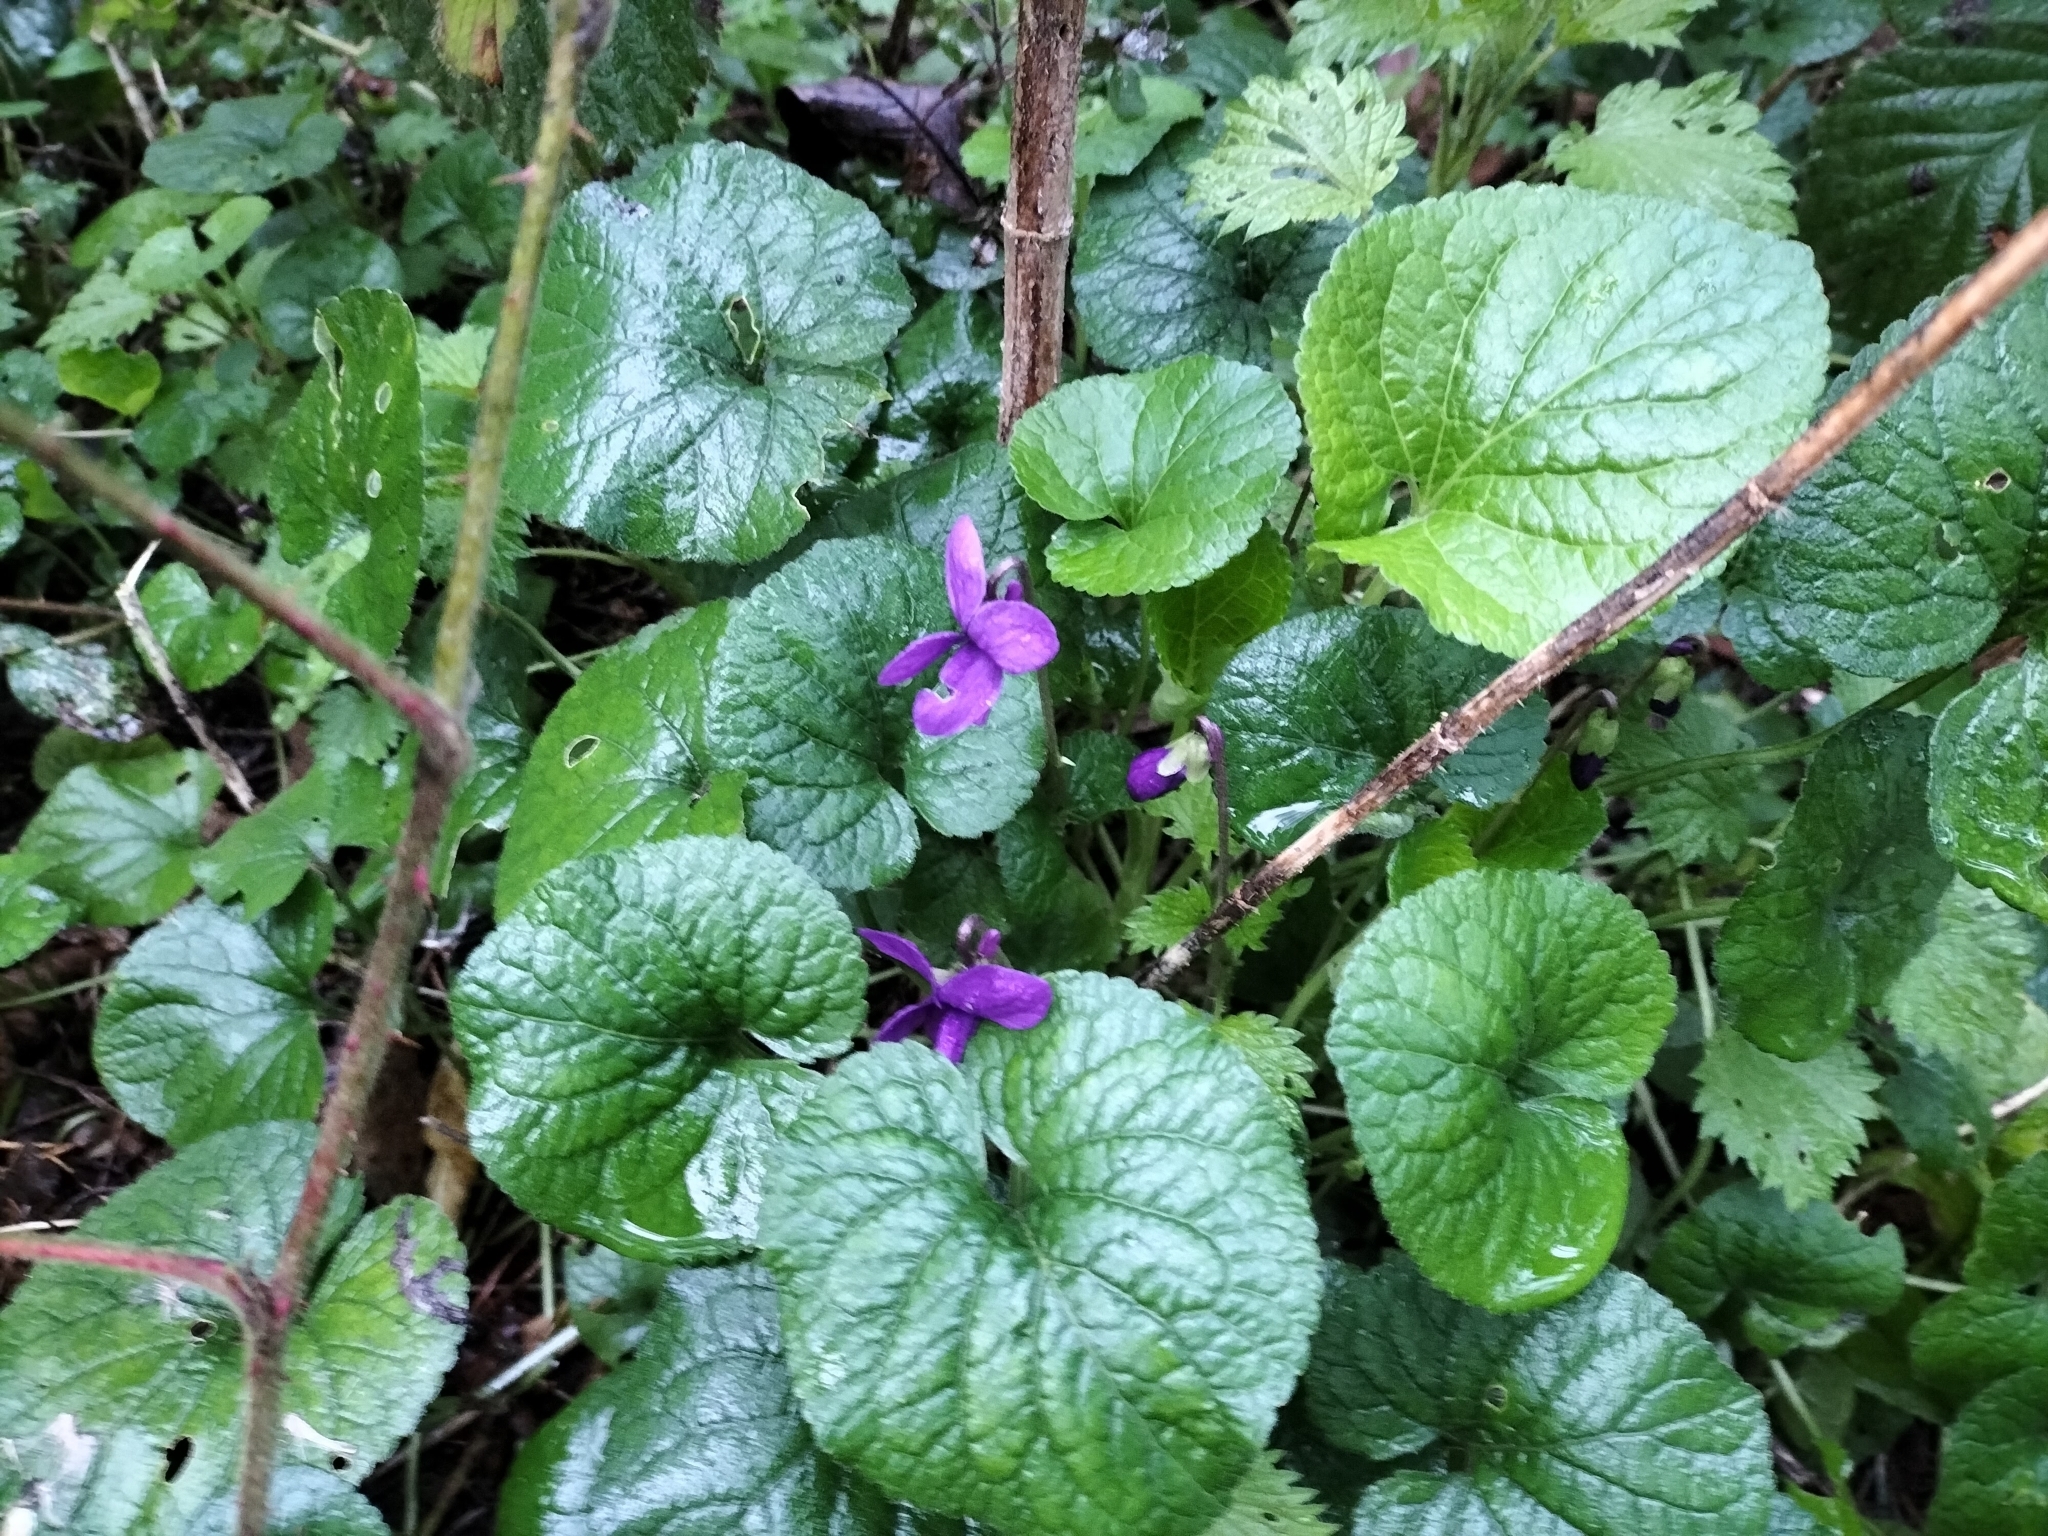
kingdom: Plantae
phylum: Tracheophyta
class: Magnoliopsida
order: Malpighiales
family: Violaceae
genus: Viola
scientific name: Viola odorata
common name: Sweet violet
